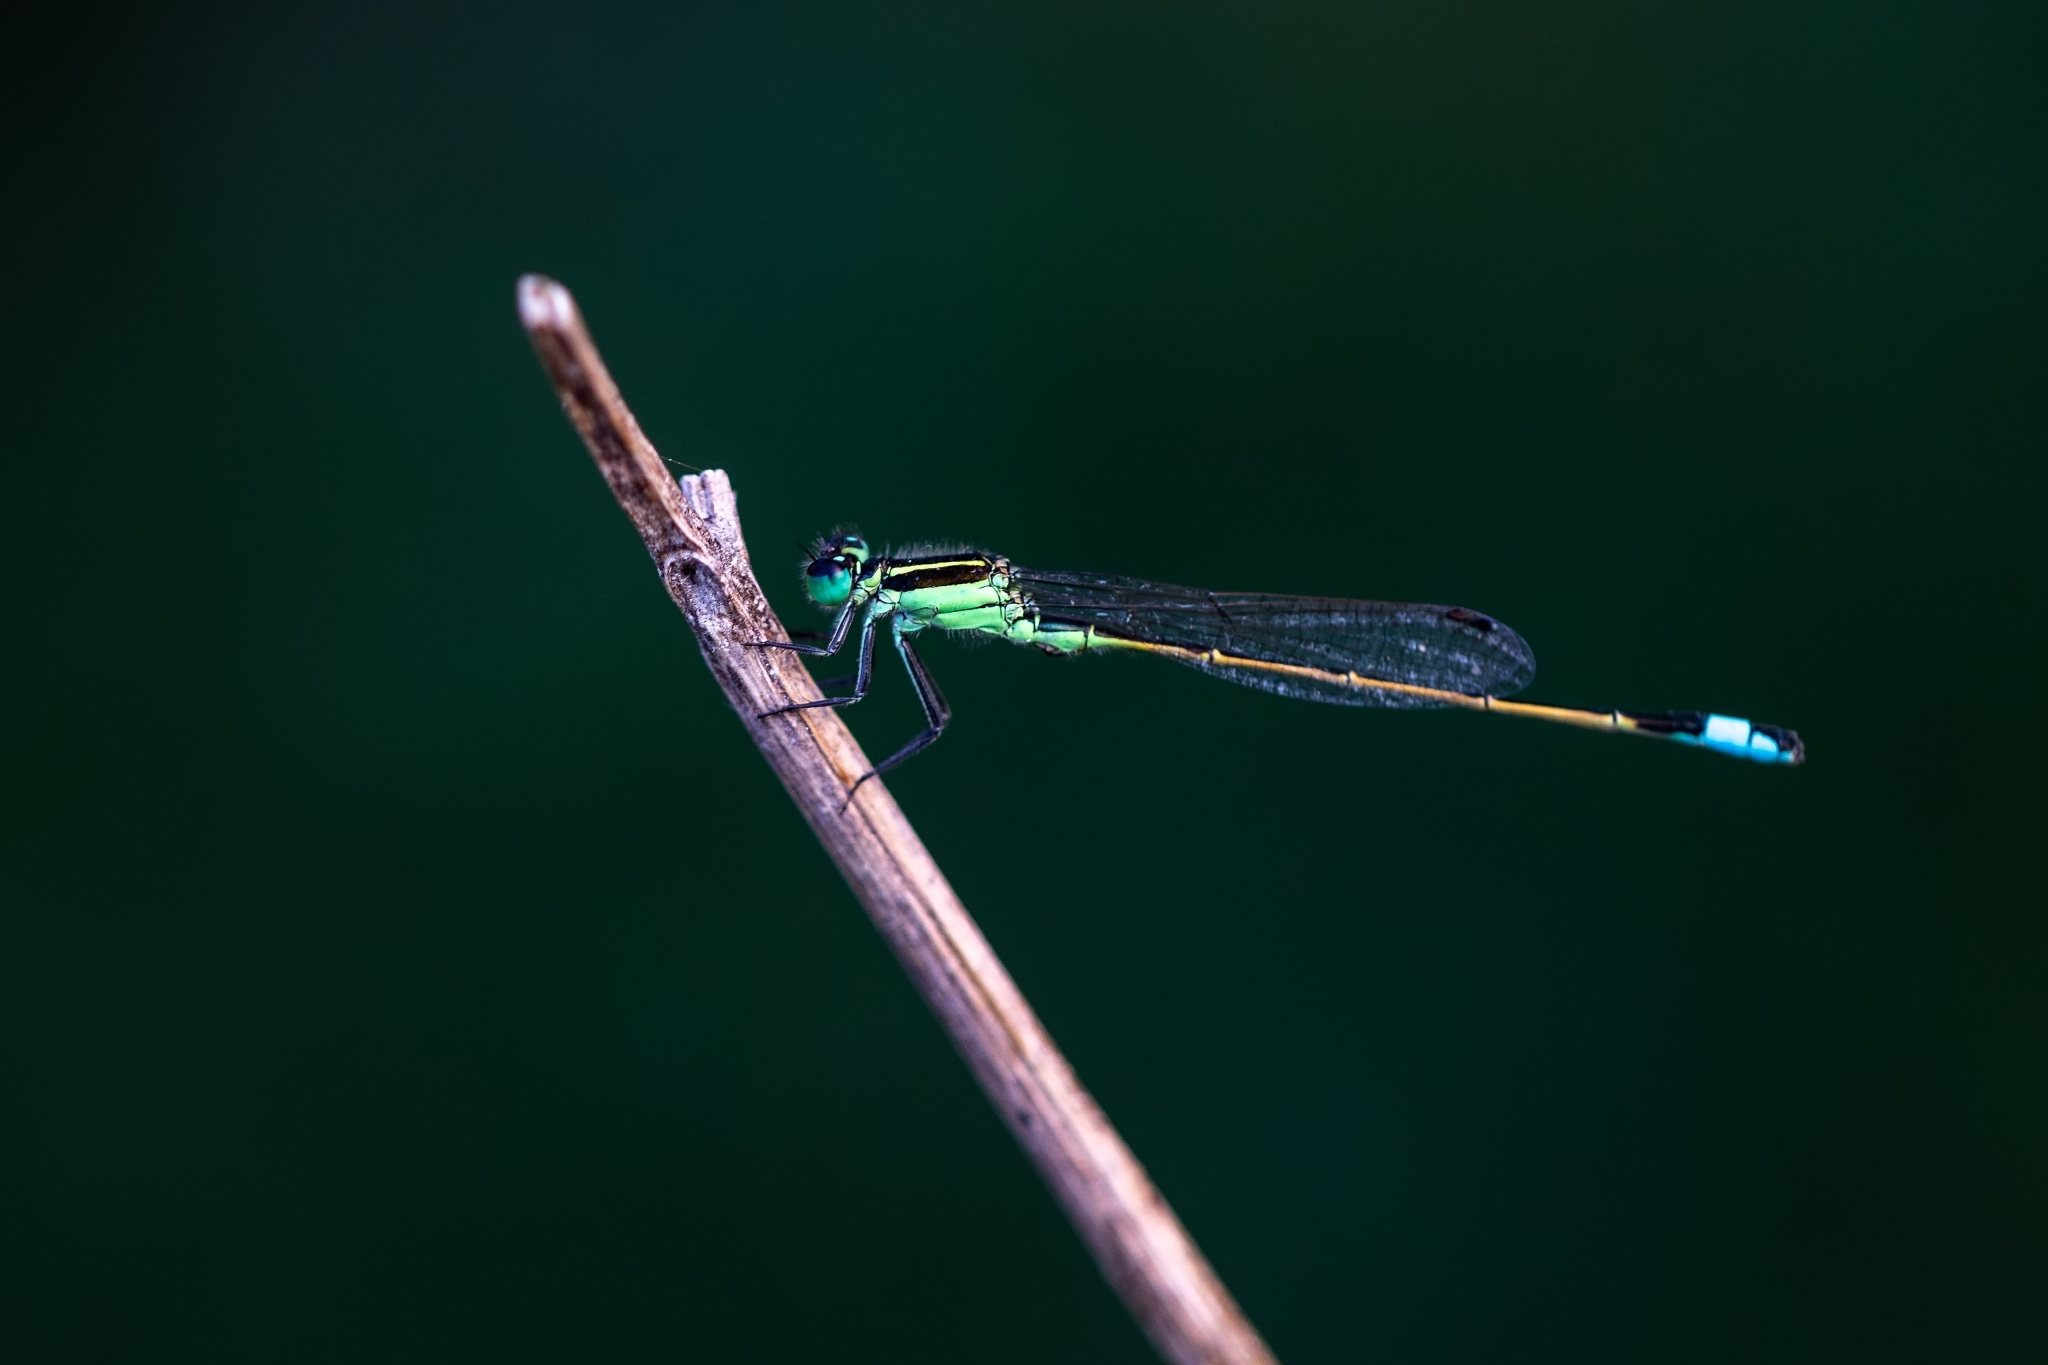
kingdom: Animalia
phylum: Arthropoda
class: Insecta
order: Odonata
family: Coenagrionidae
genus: Ischnura
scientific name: Ischnura ramburii
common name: Rambur's forktail
